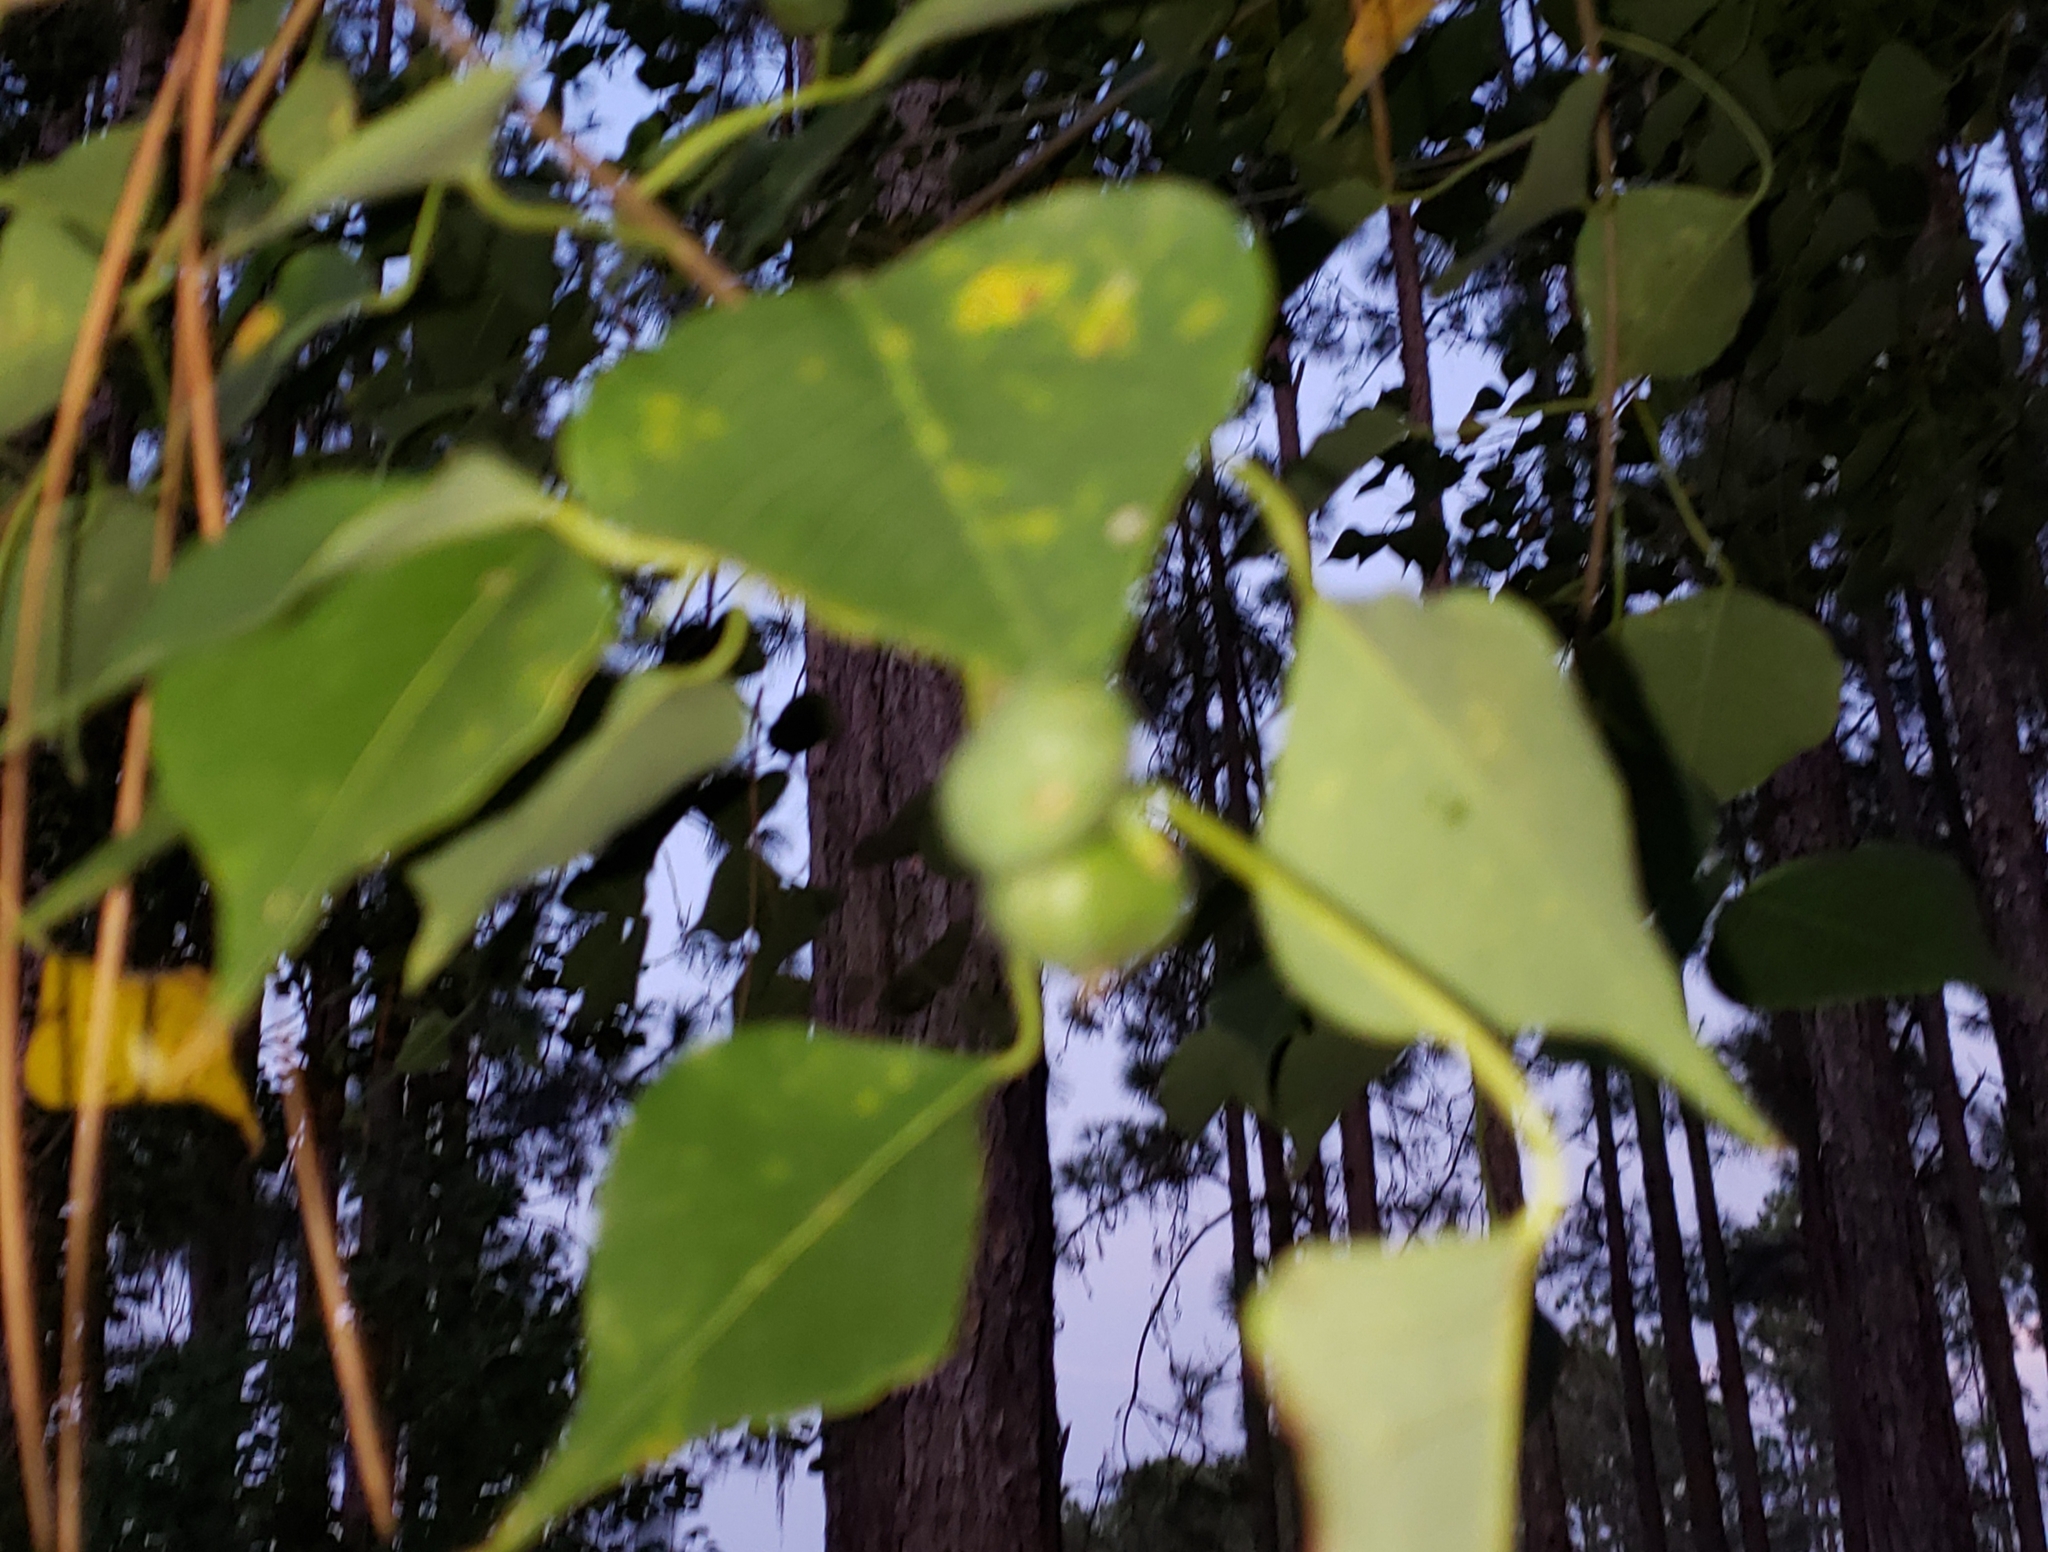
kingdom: Plantae
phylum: Tracheophyta
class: Magnoliopsida
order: Malpighiales
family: Euphorbiaceae
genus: Triadica
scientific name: Triadica sebifera
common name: Chinese tallow
